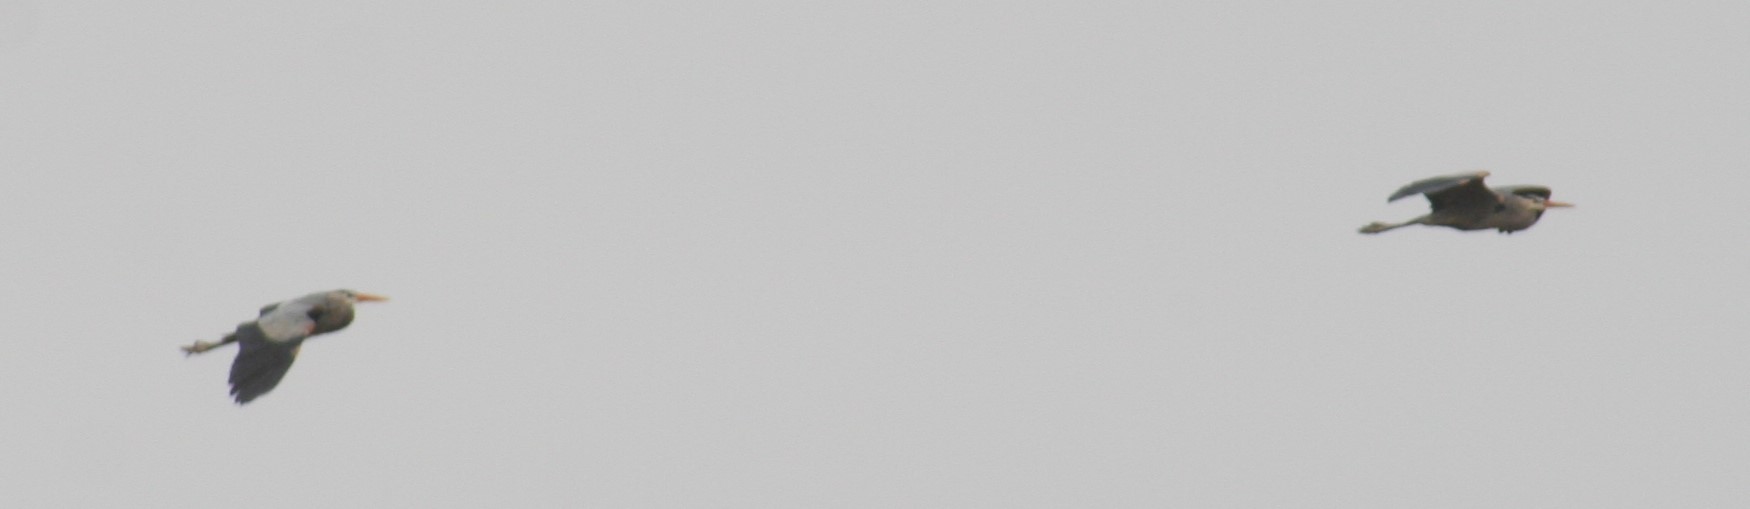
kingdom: Animalia
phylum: Chordata
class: Aves
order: Pelecaniformes
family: Ardeidae
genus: Ardea
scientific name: Ardea herodias
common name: Great blue heron
